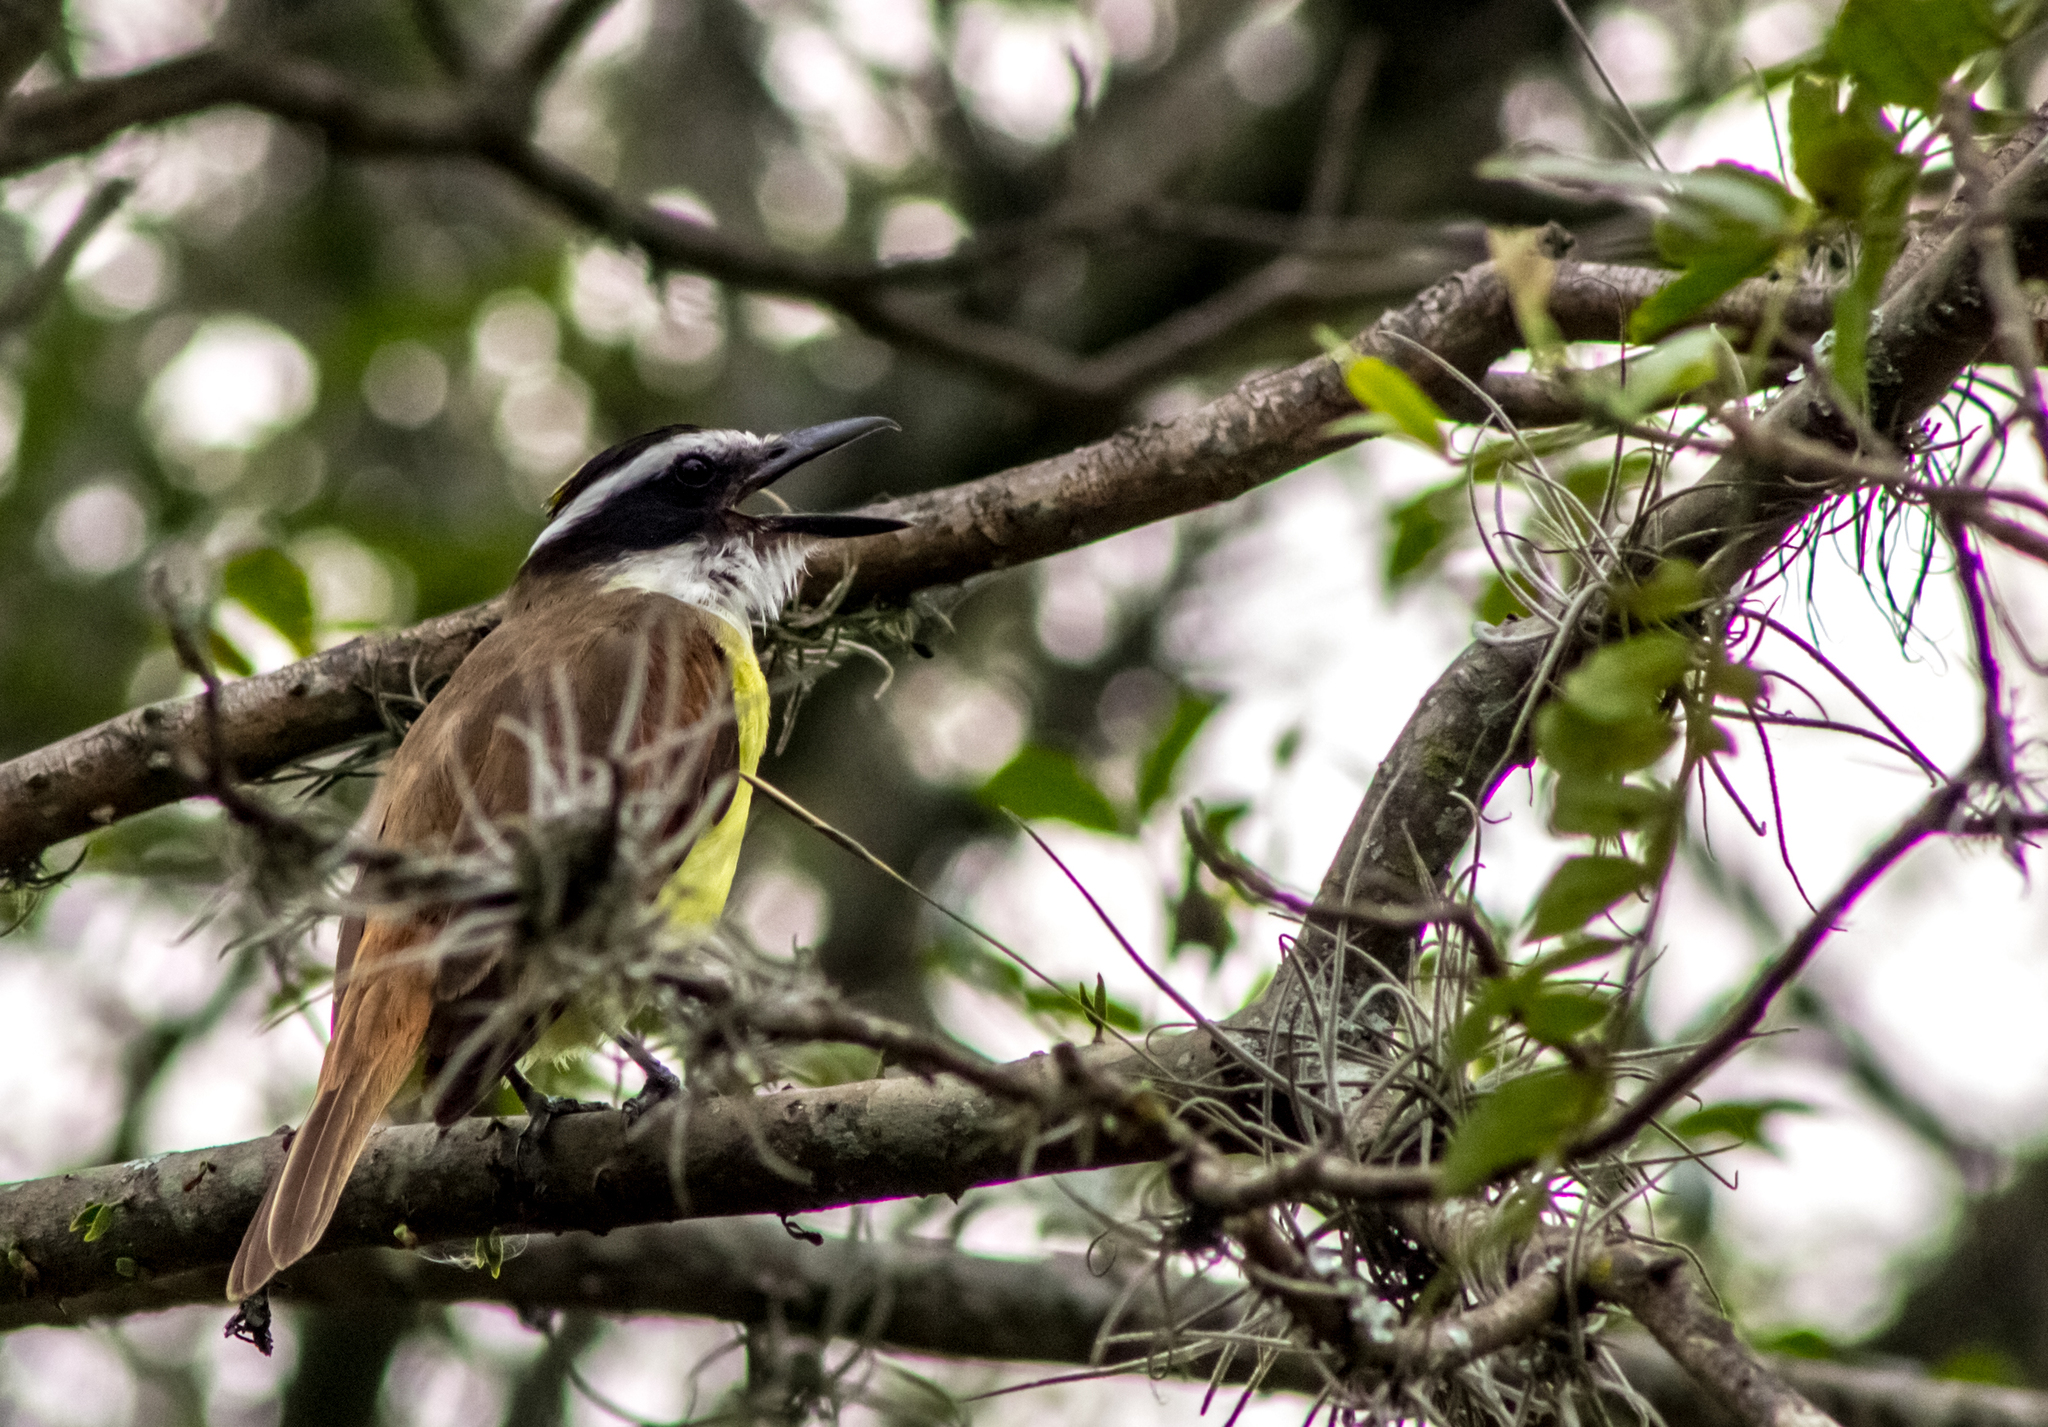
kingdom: Animalia
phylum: Chordata
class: Aves
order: Passeriformes
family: Tyrannidae
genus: Pitangus
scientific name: Pitangus sulphuratus
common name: Great kiskadee
